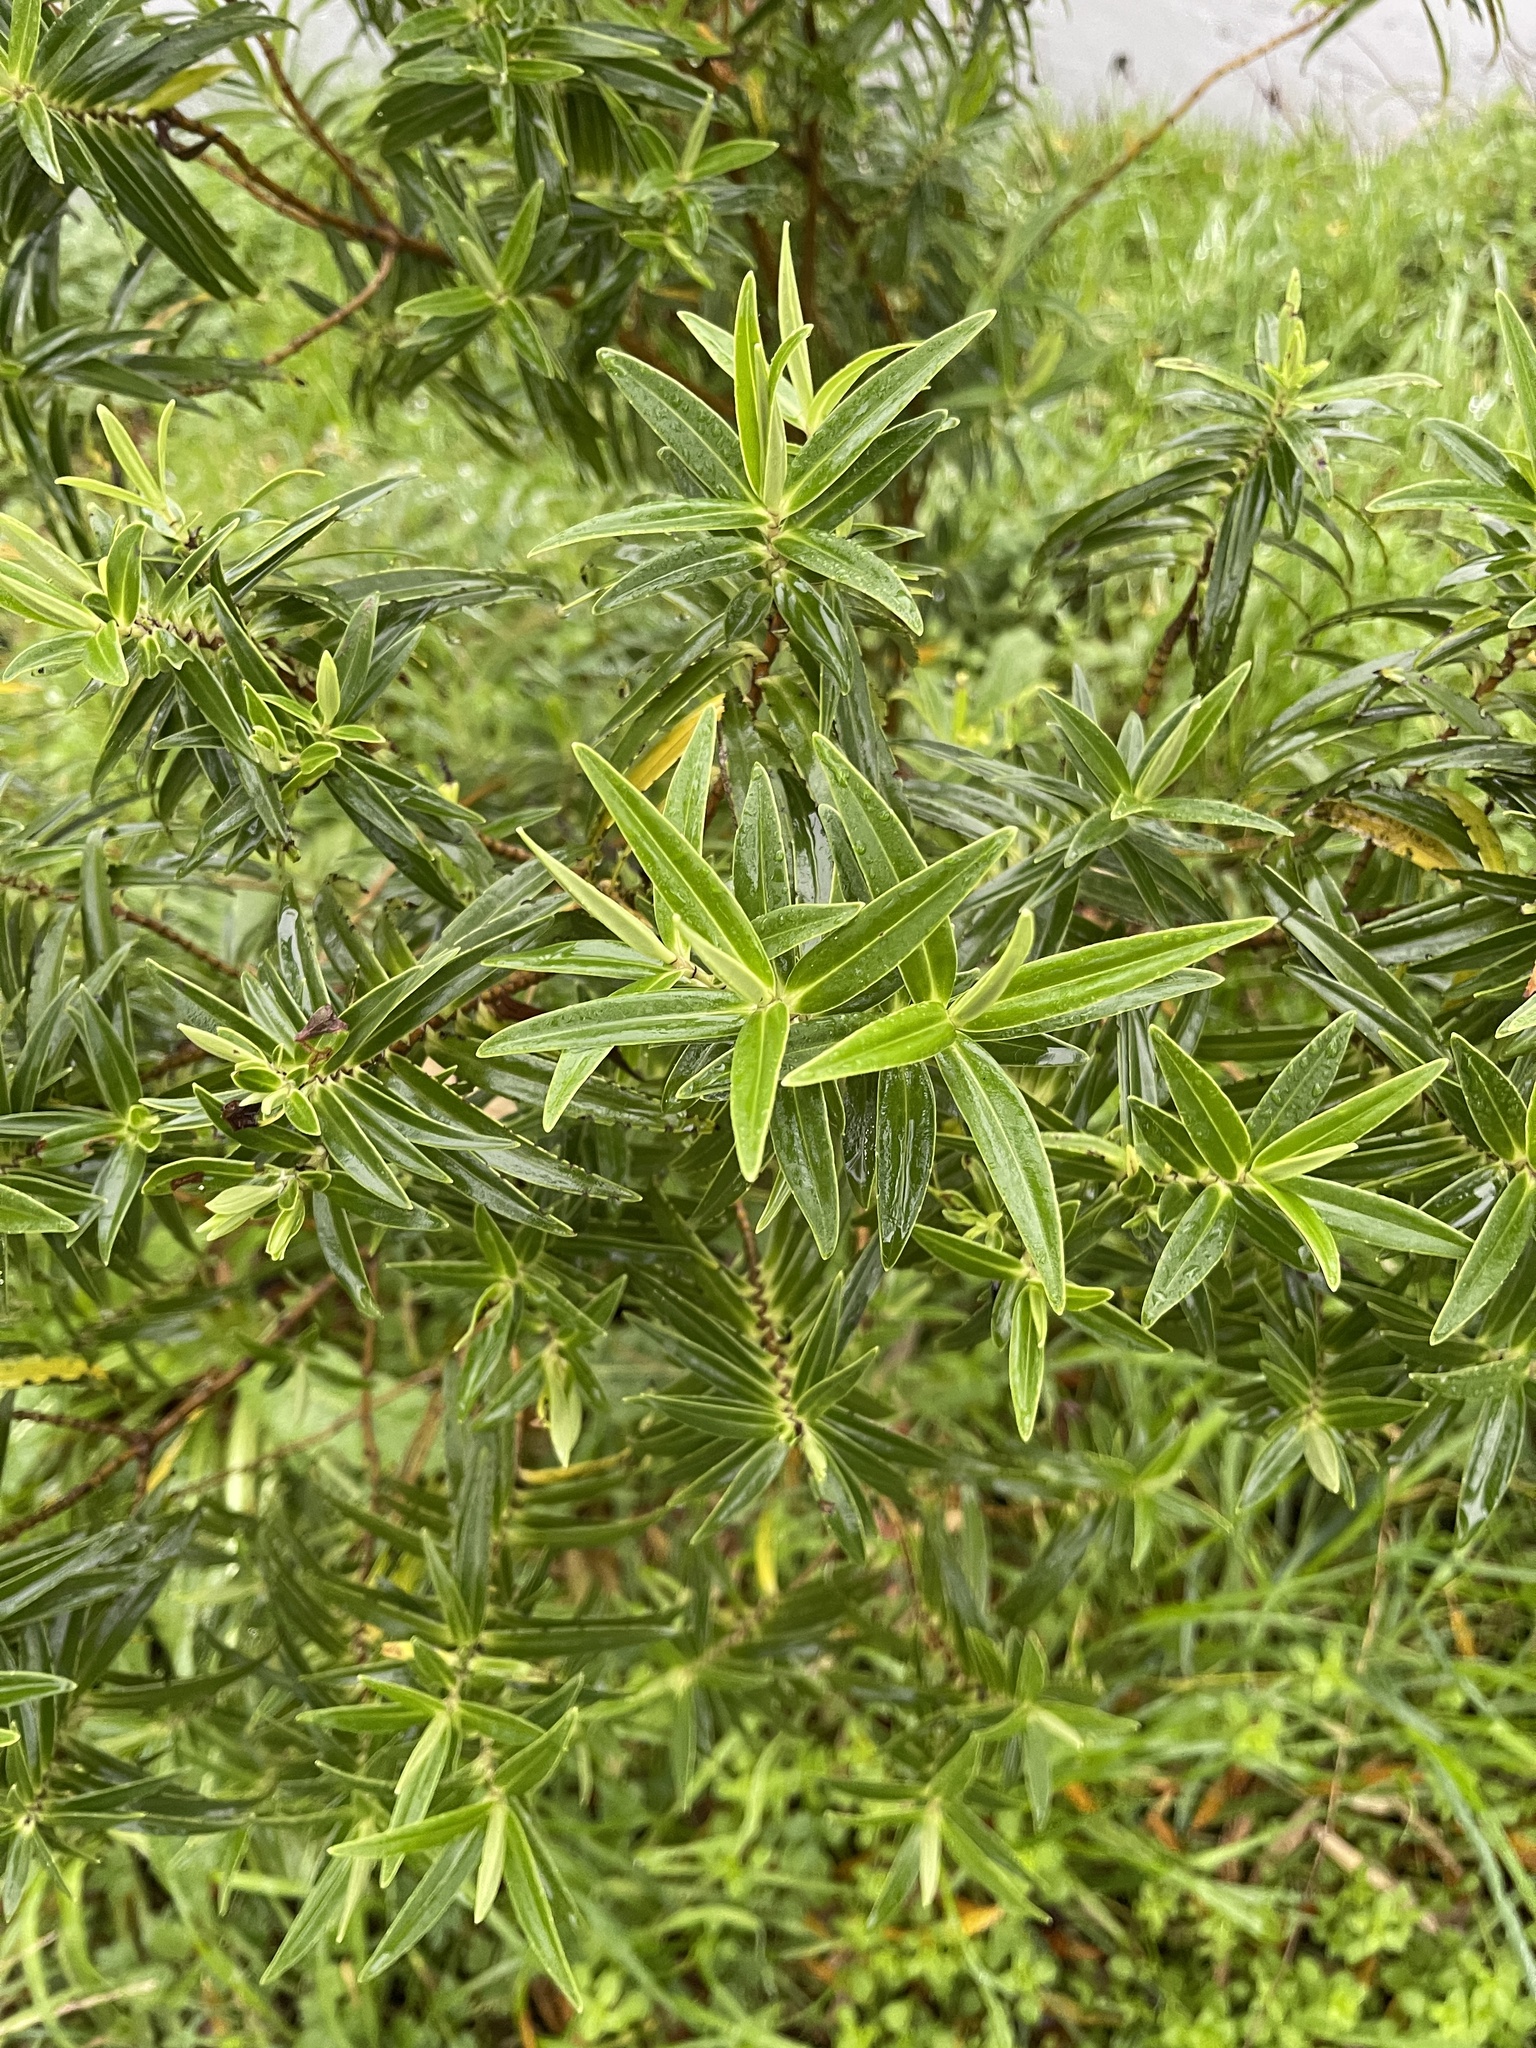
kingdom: Plantae
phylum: Tracheophyta
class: Magnoliopsida
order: Lamiales
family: Plantaginaceae
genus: Veronica
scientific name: Veronica stricta
